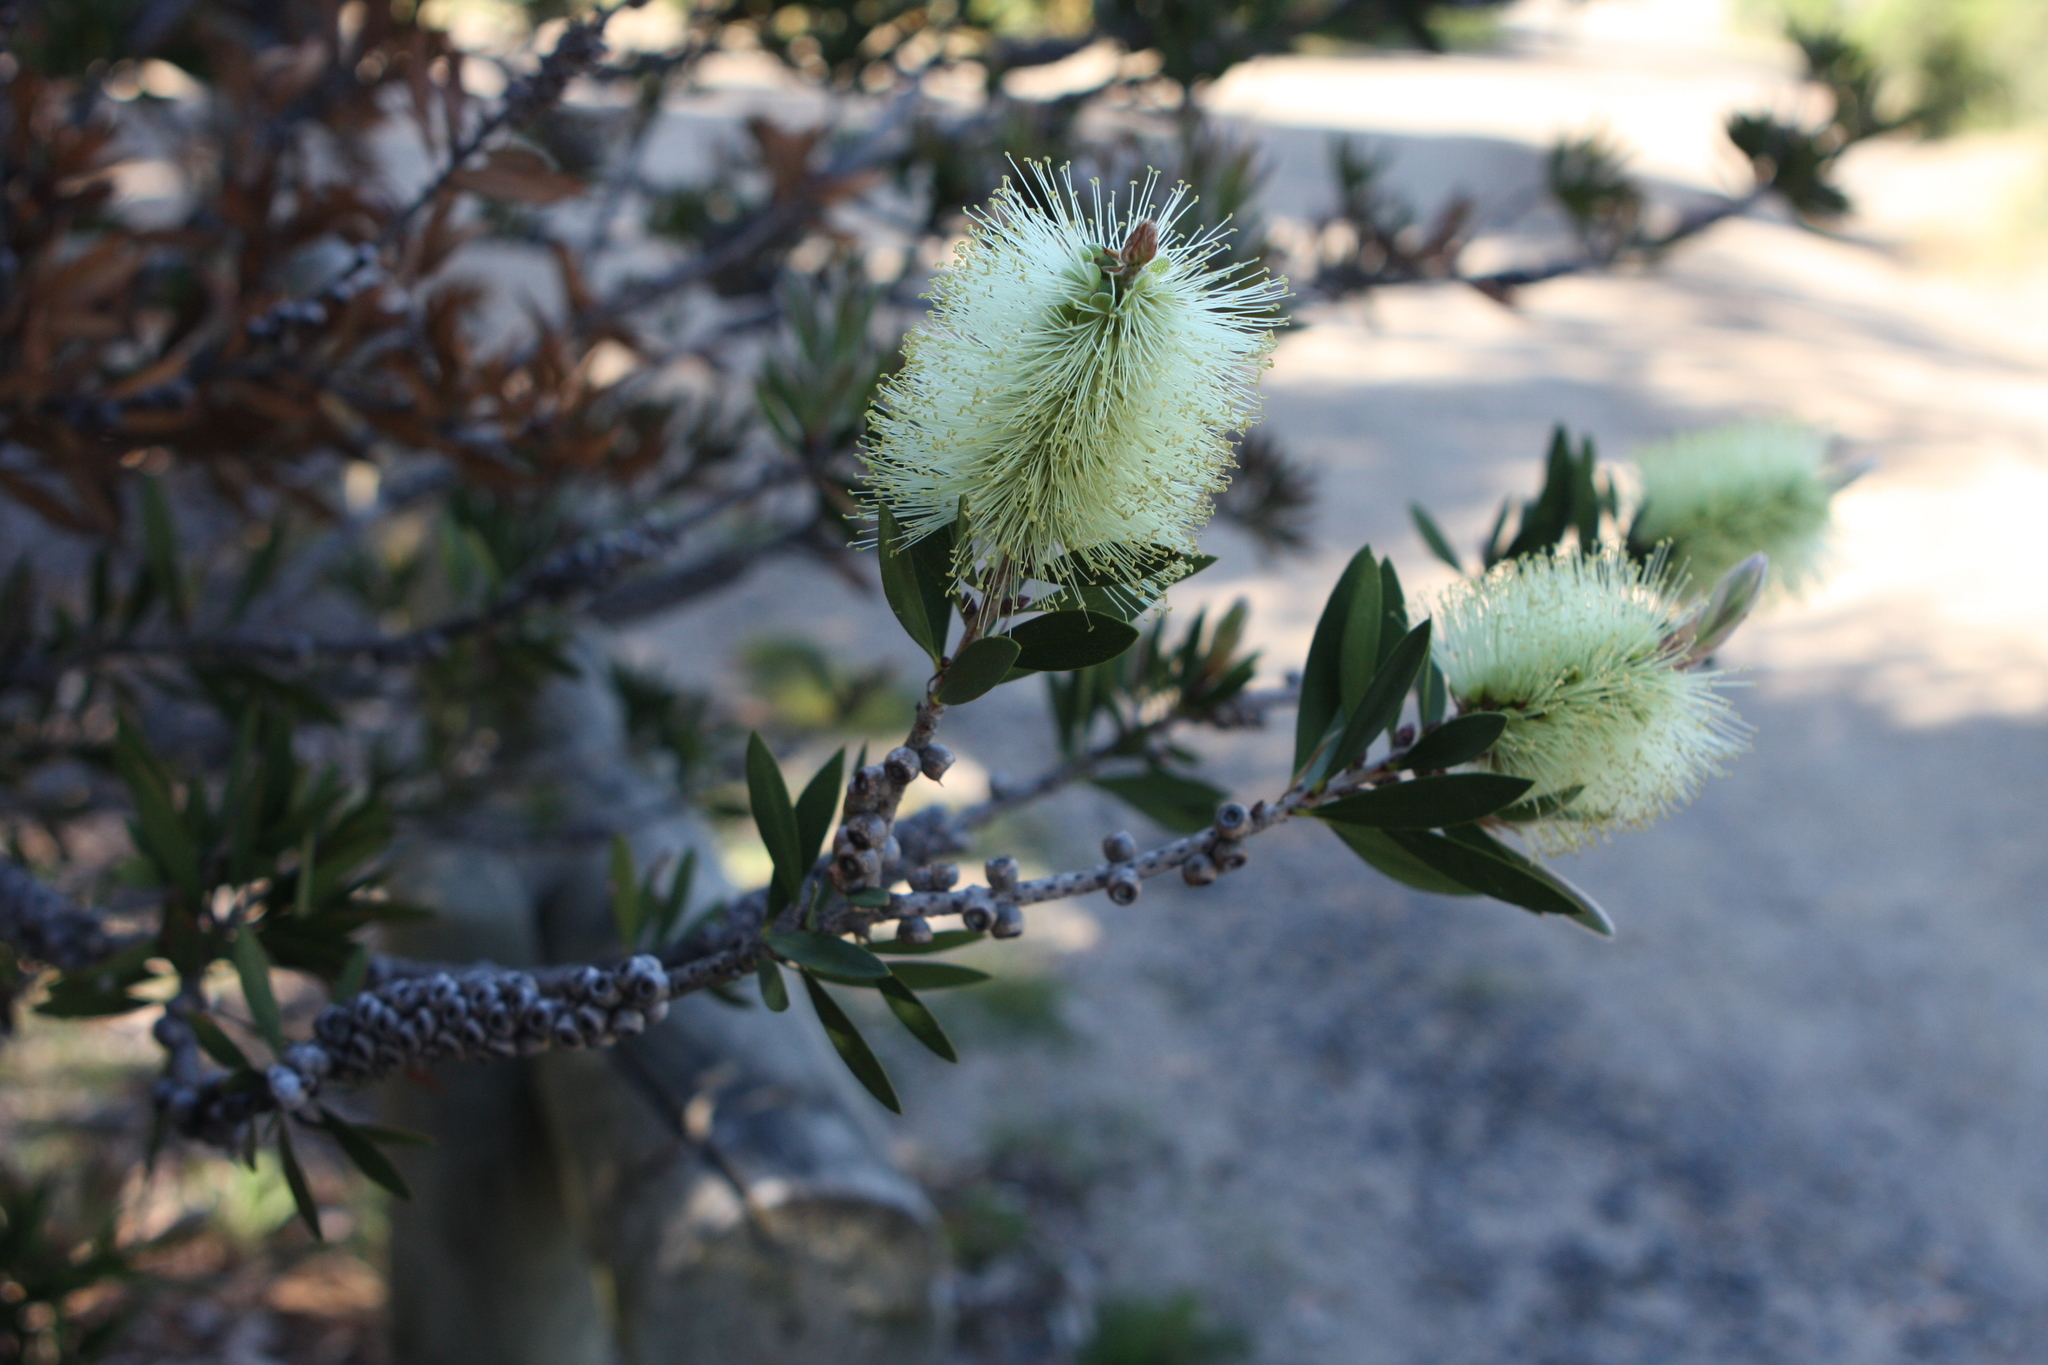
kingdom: Plantae
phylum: Tracheophyta
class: Magnoliopsida
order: Myrtales
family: Myrtaceae
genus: Melaleuca
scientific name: Melaleuca pallida
